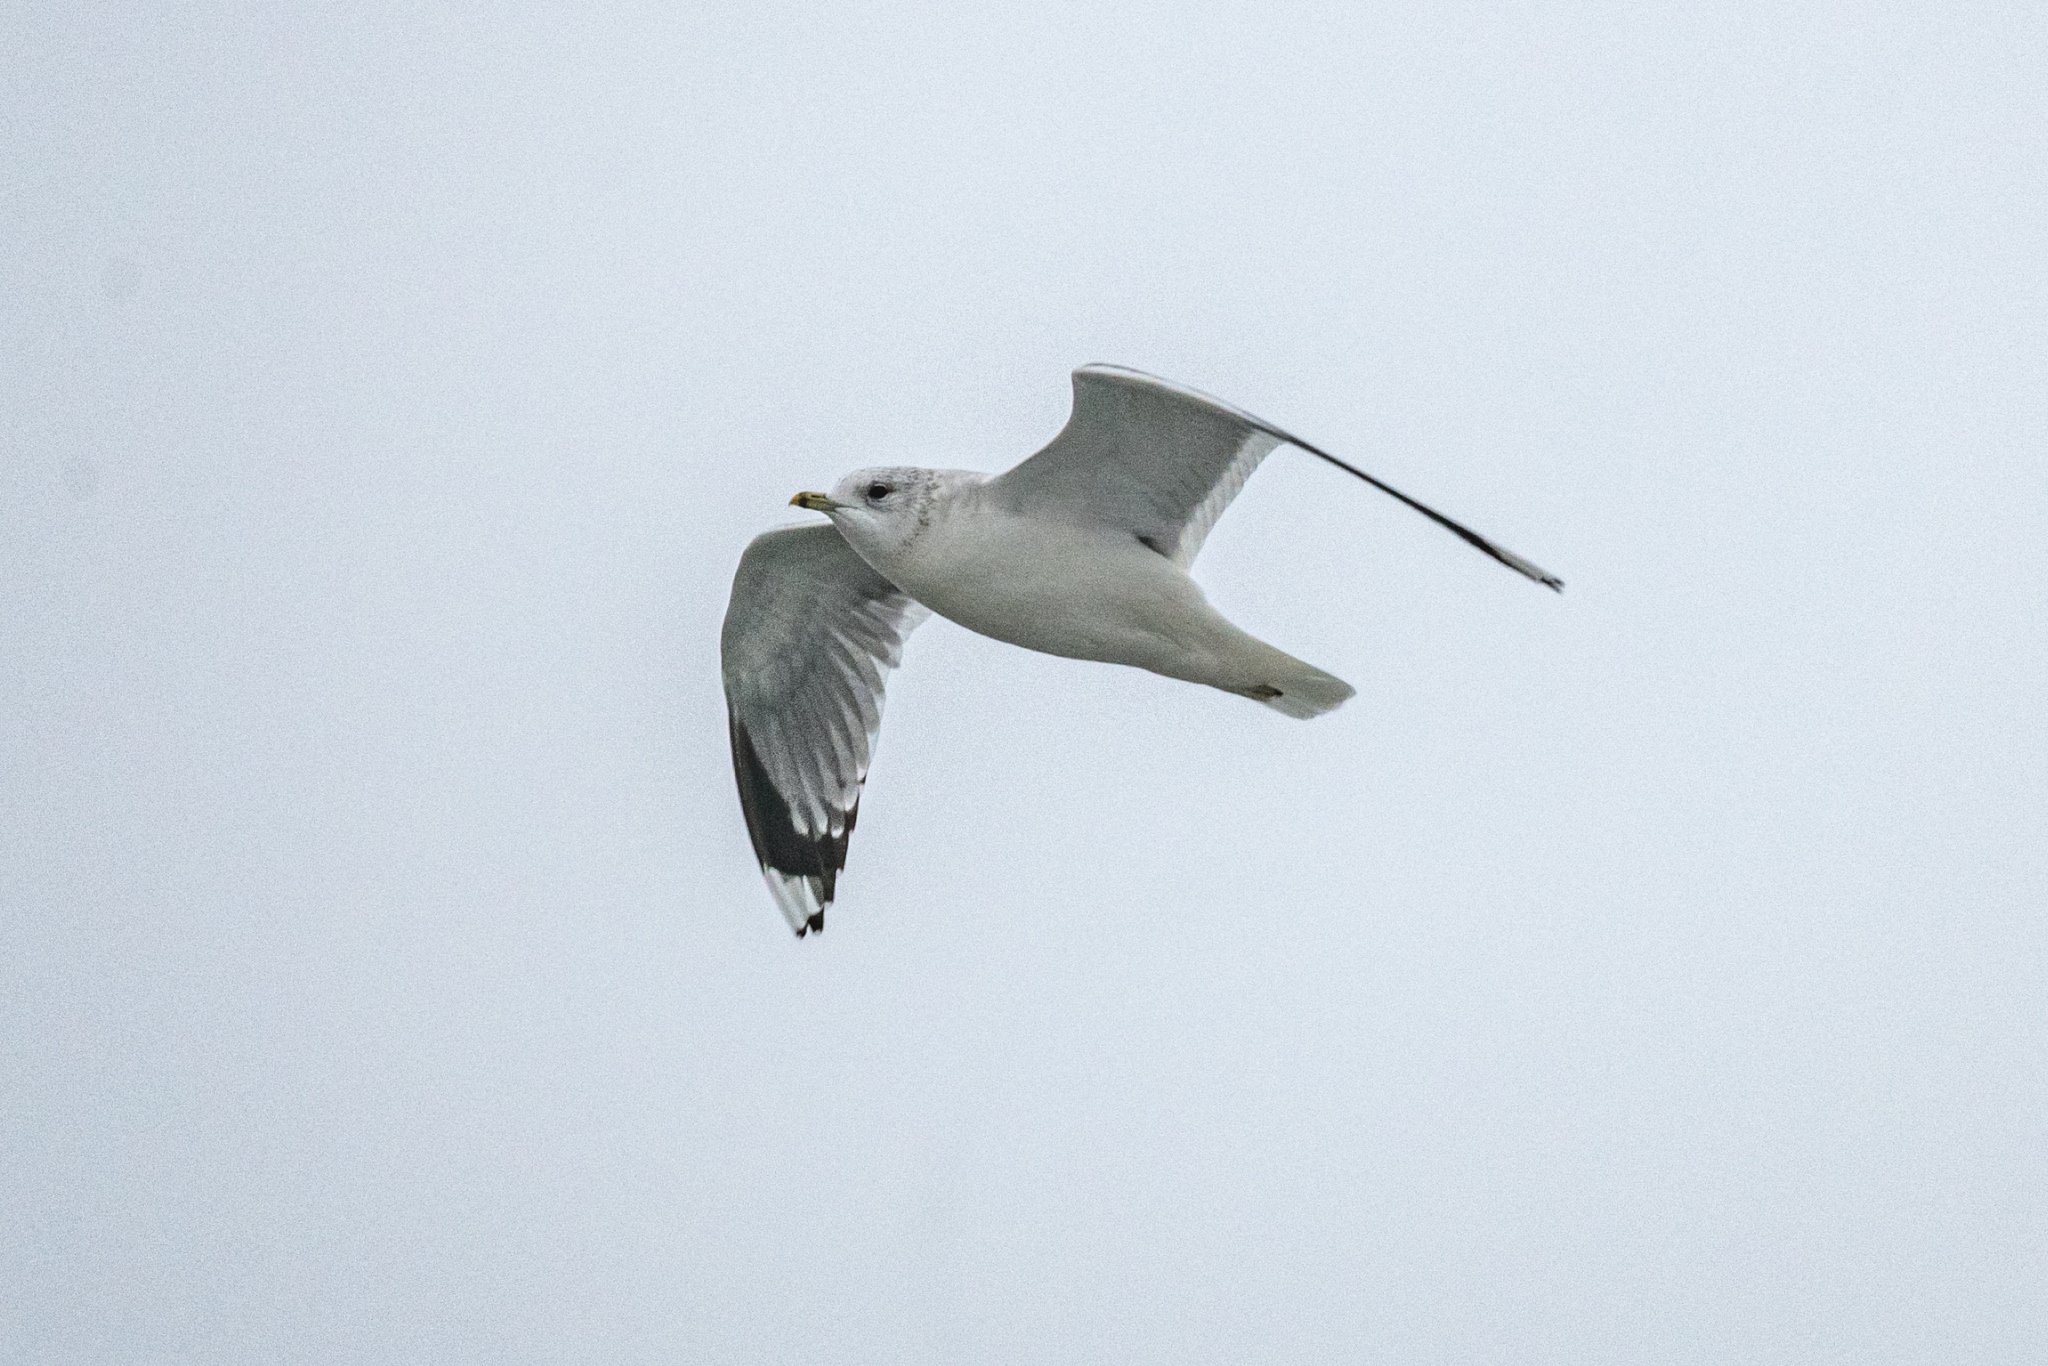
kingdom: Animalia
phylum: Chordata
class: Aves
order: Charadriiformes
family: Laridae
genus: Larus
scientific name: Larus canus
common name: Mew gull
